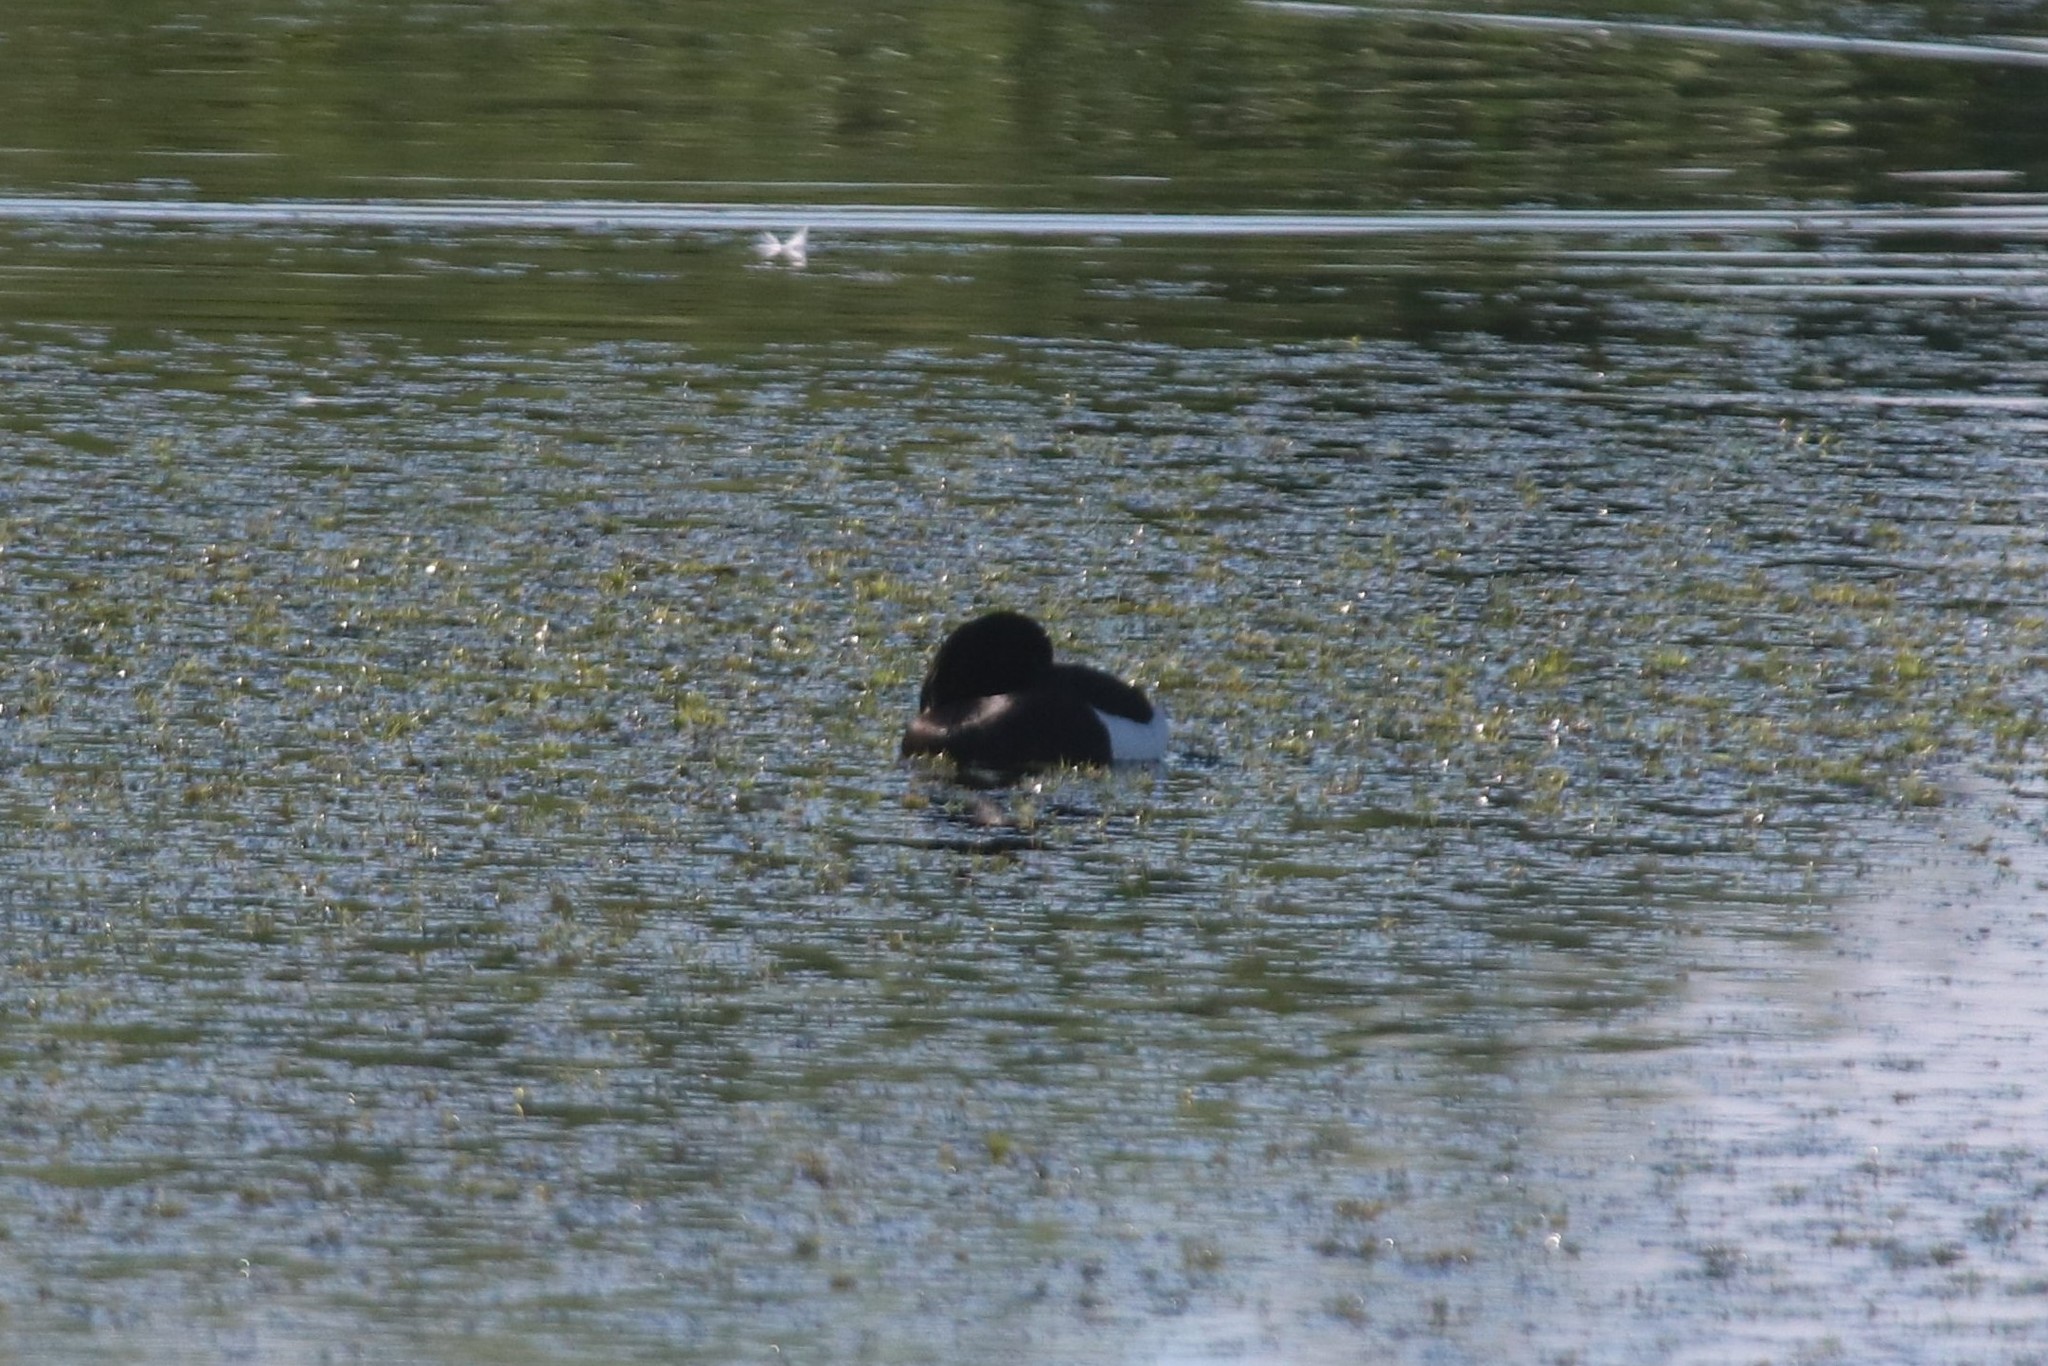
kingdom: Animalia
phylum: Chordata
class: Aves
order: Anseriformes
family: Anatidae
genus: Aythya
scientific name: Aythya fuligula
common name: Tufted duck
